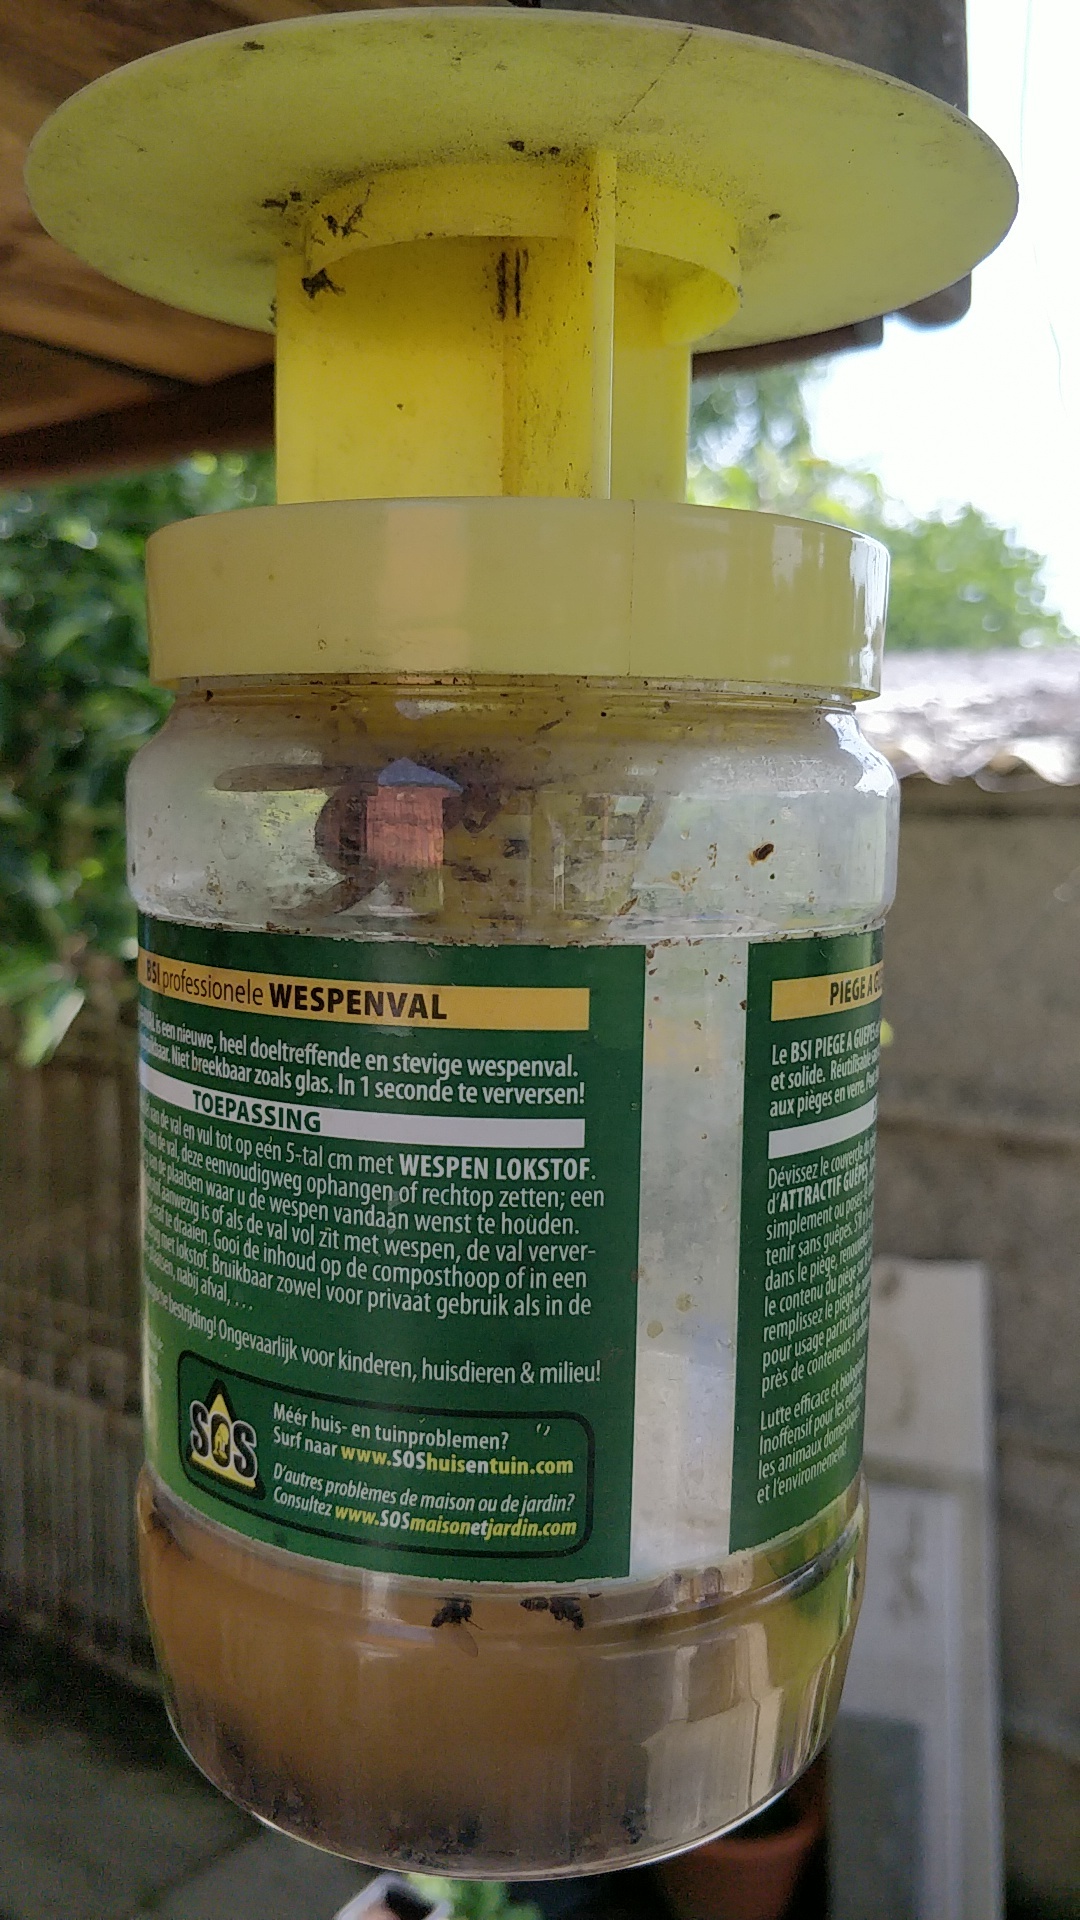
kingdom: Animalia
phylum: Arthropoda
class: Insecta
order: Hymenoptera
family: Vespidae
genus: Vespa
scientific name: Vespa crabro
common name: Hornet
